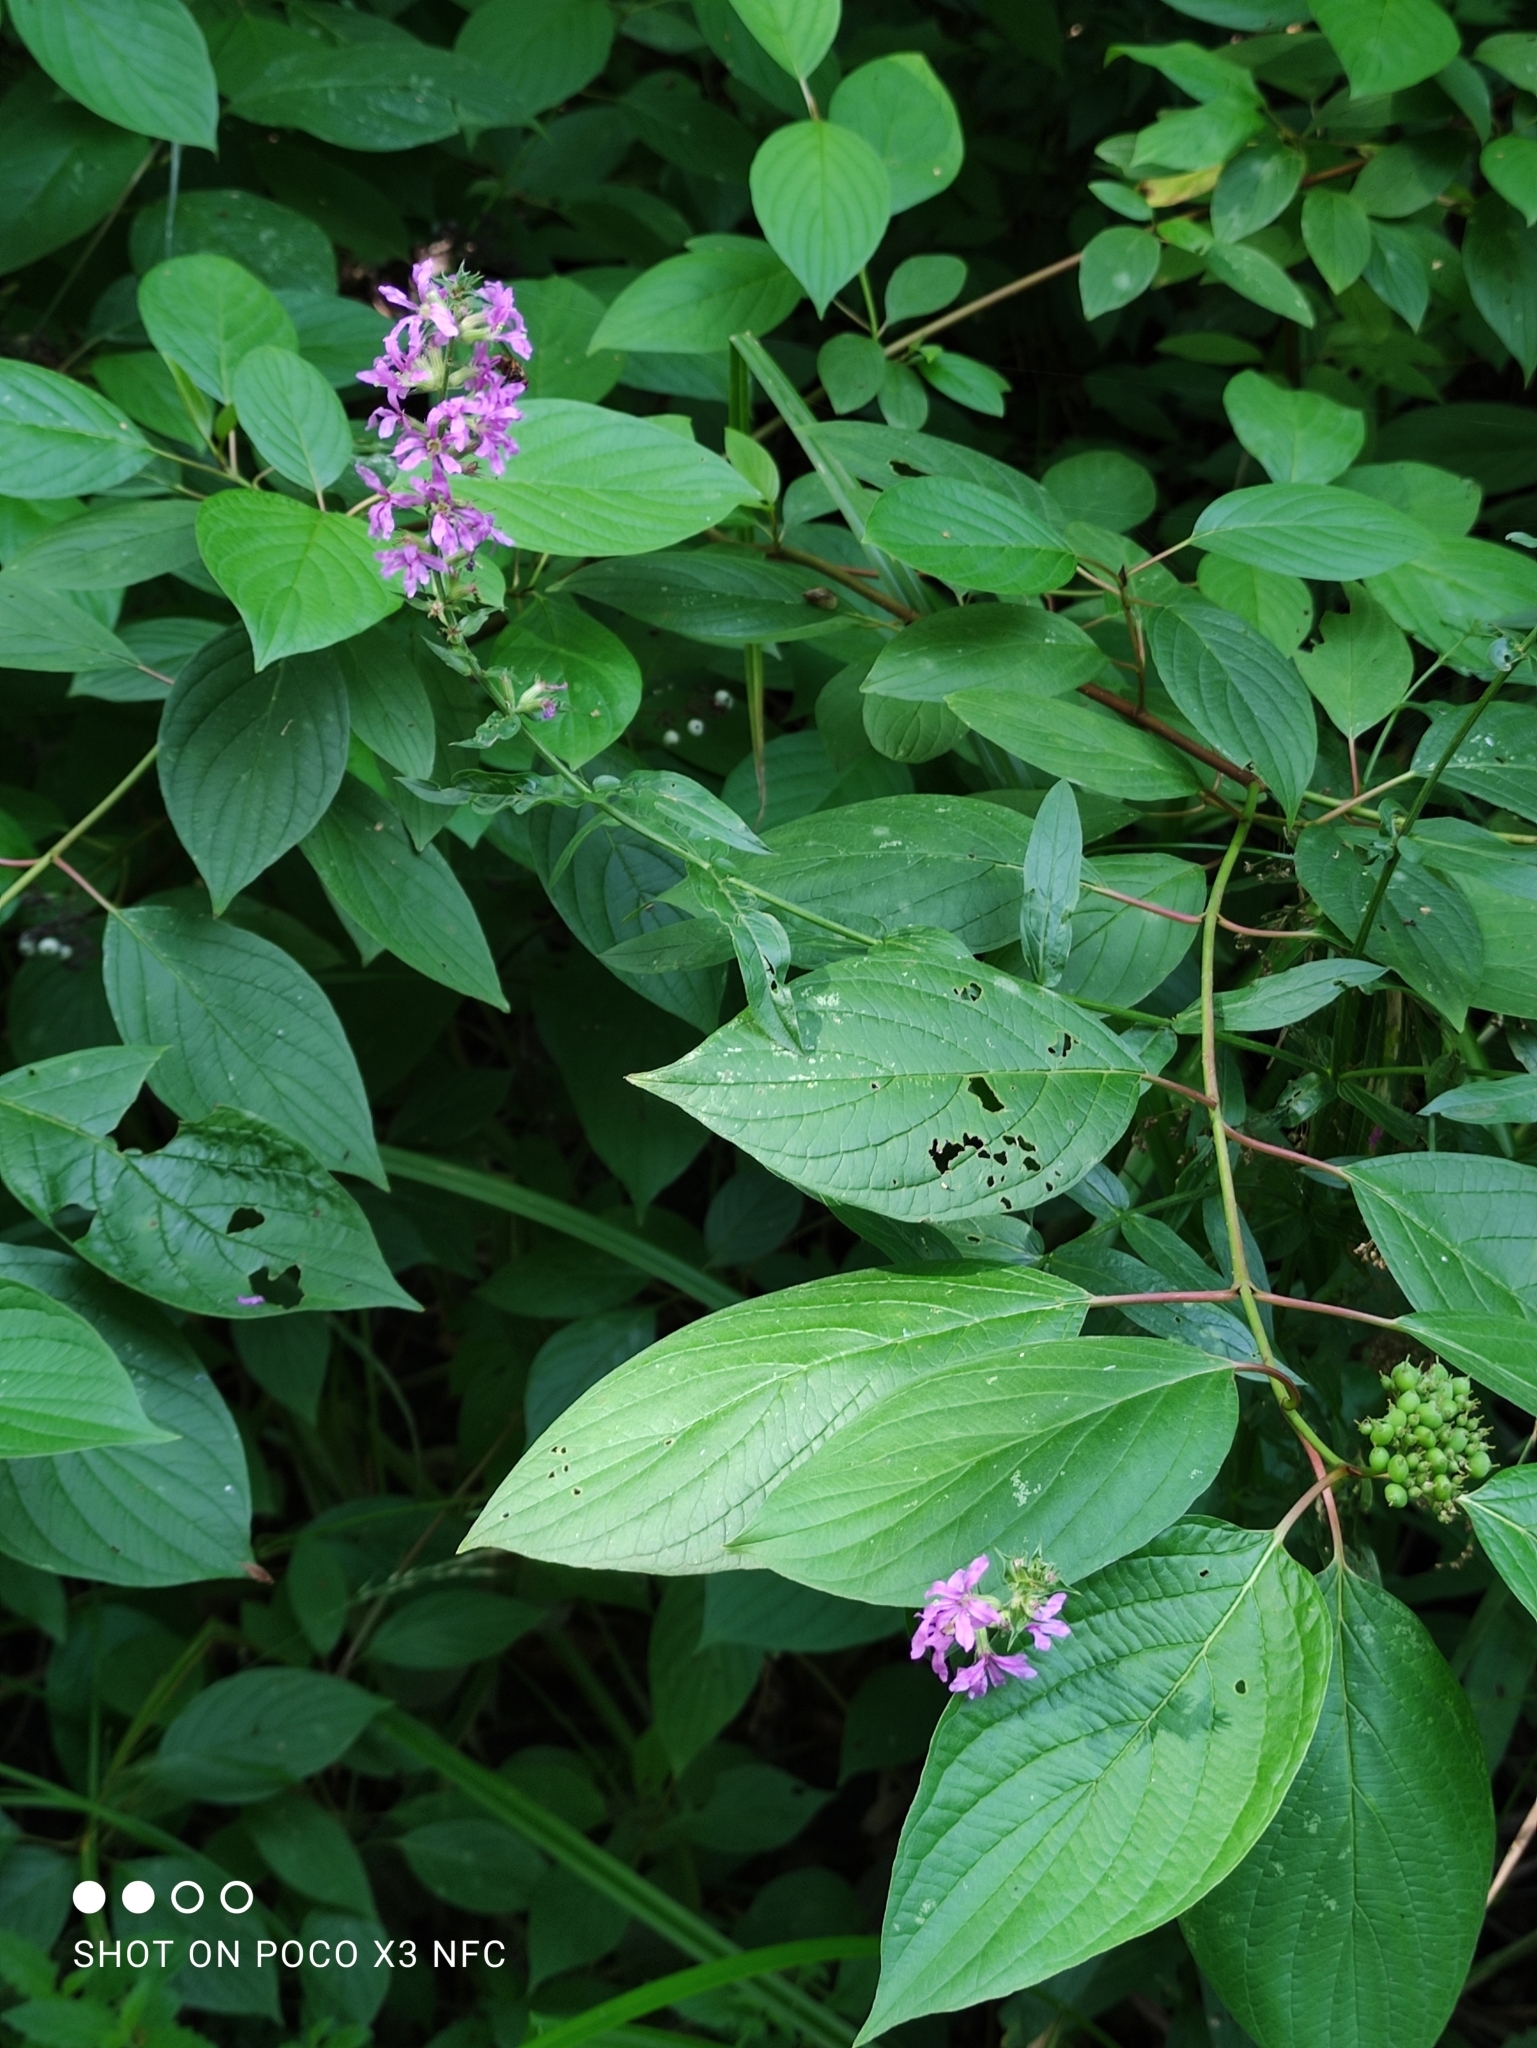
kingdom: Plantae
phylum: Tracheophyta
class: Magnoliopsida
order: Myrtales
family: Lythraceae
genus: Lythrum
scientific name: Lythrum salicaria
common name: Purple loosestrife
